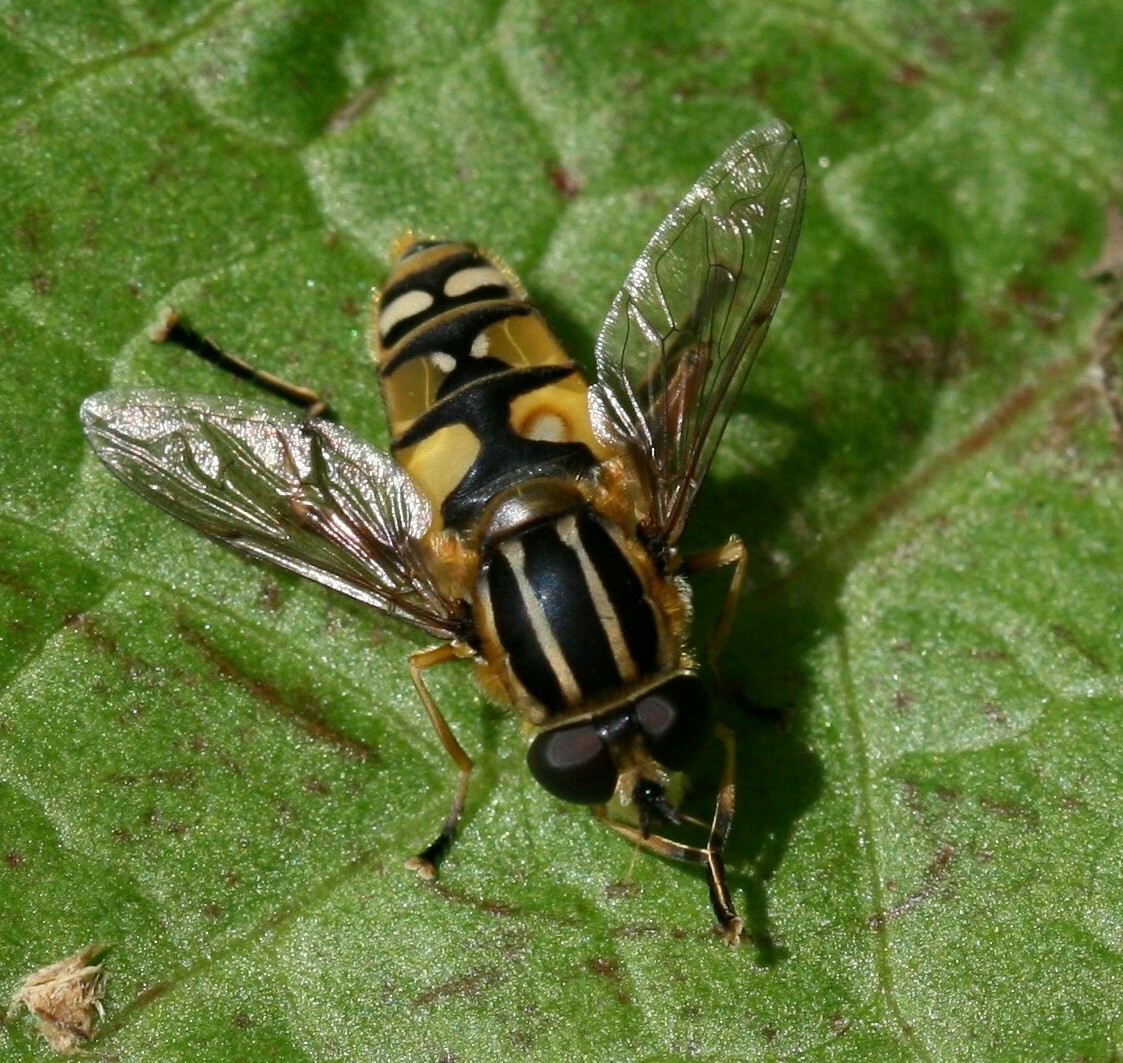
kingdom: Animalia
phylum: Arthropoda
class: Insecta
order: Diptera
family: Syrphidae
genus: Helophilus
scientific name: Helophilus pendulus
